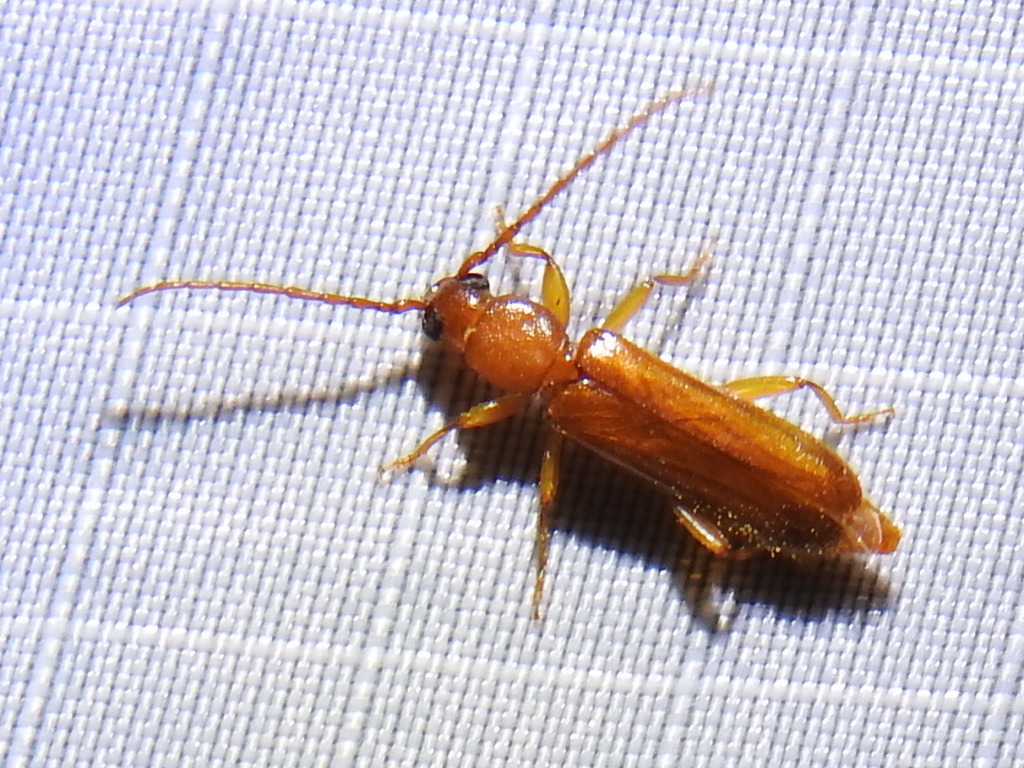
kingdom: Animalia
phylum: Arthropoda
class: Insecta
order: Coleoptera
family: Cerambycidae
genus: Smodicum
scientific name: Smodicum cucujiforme
